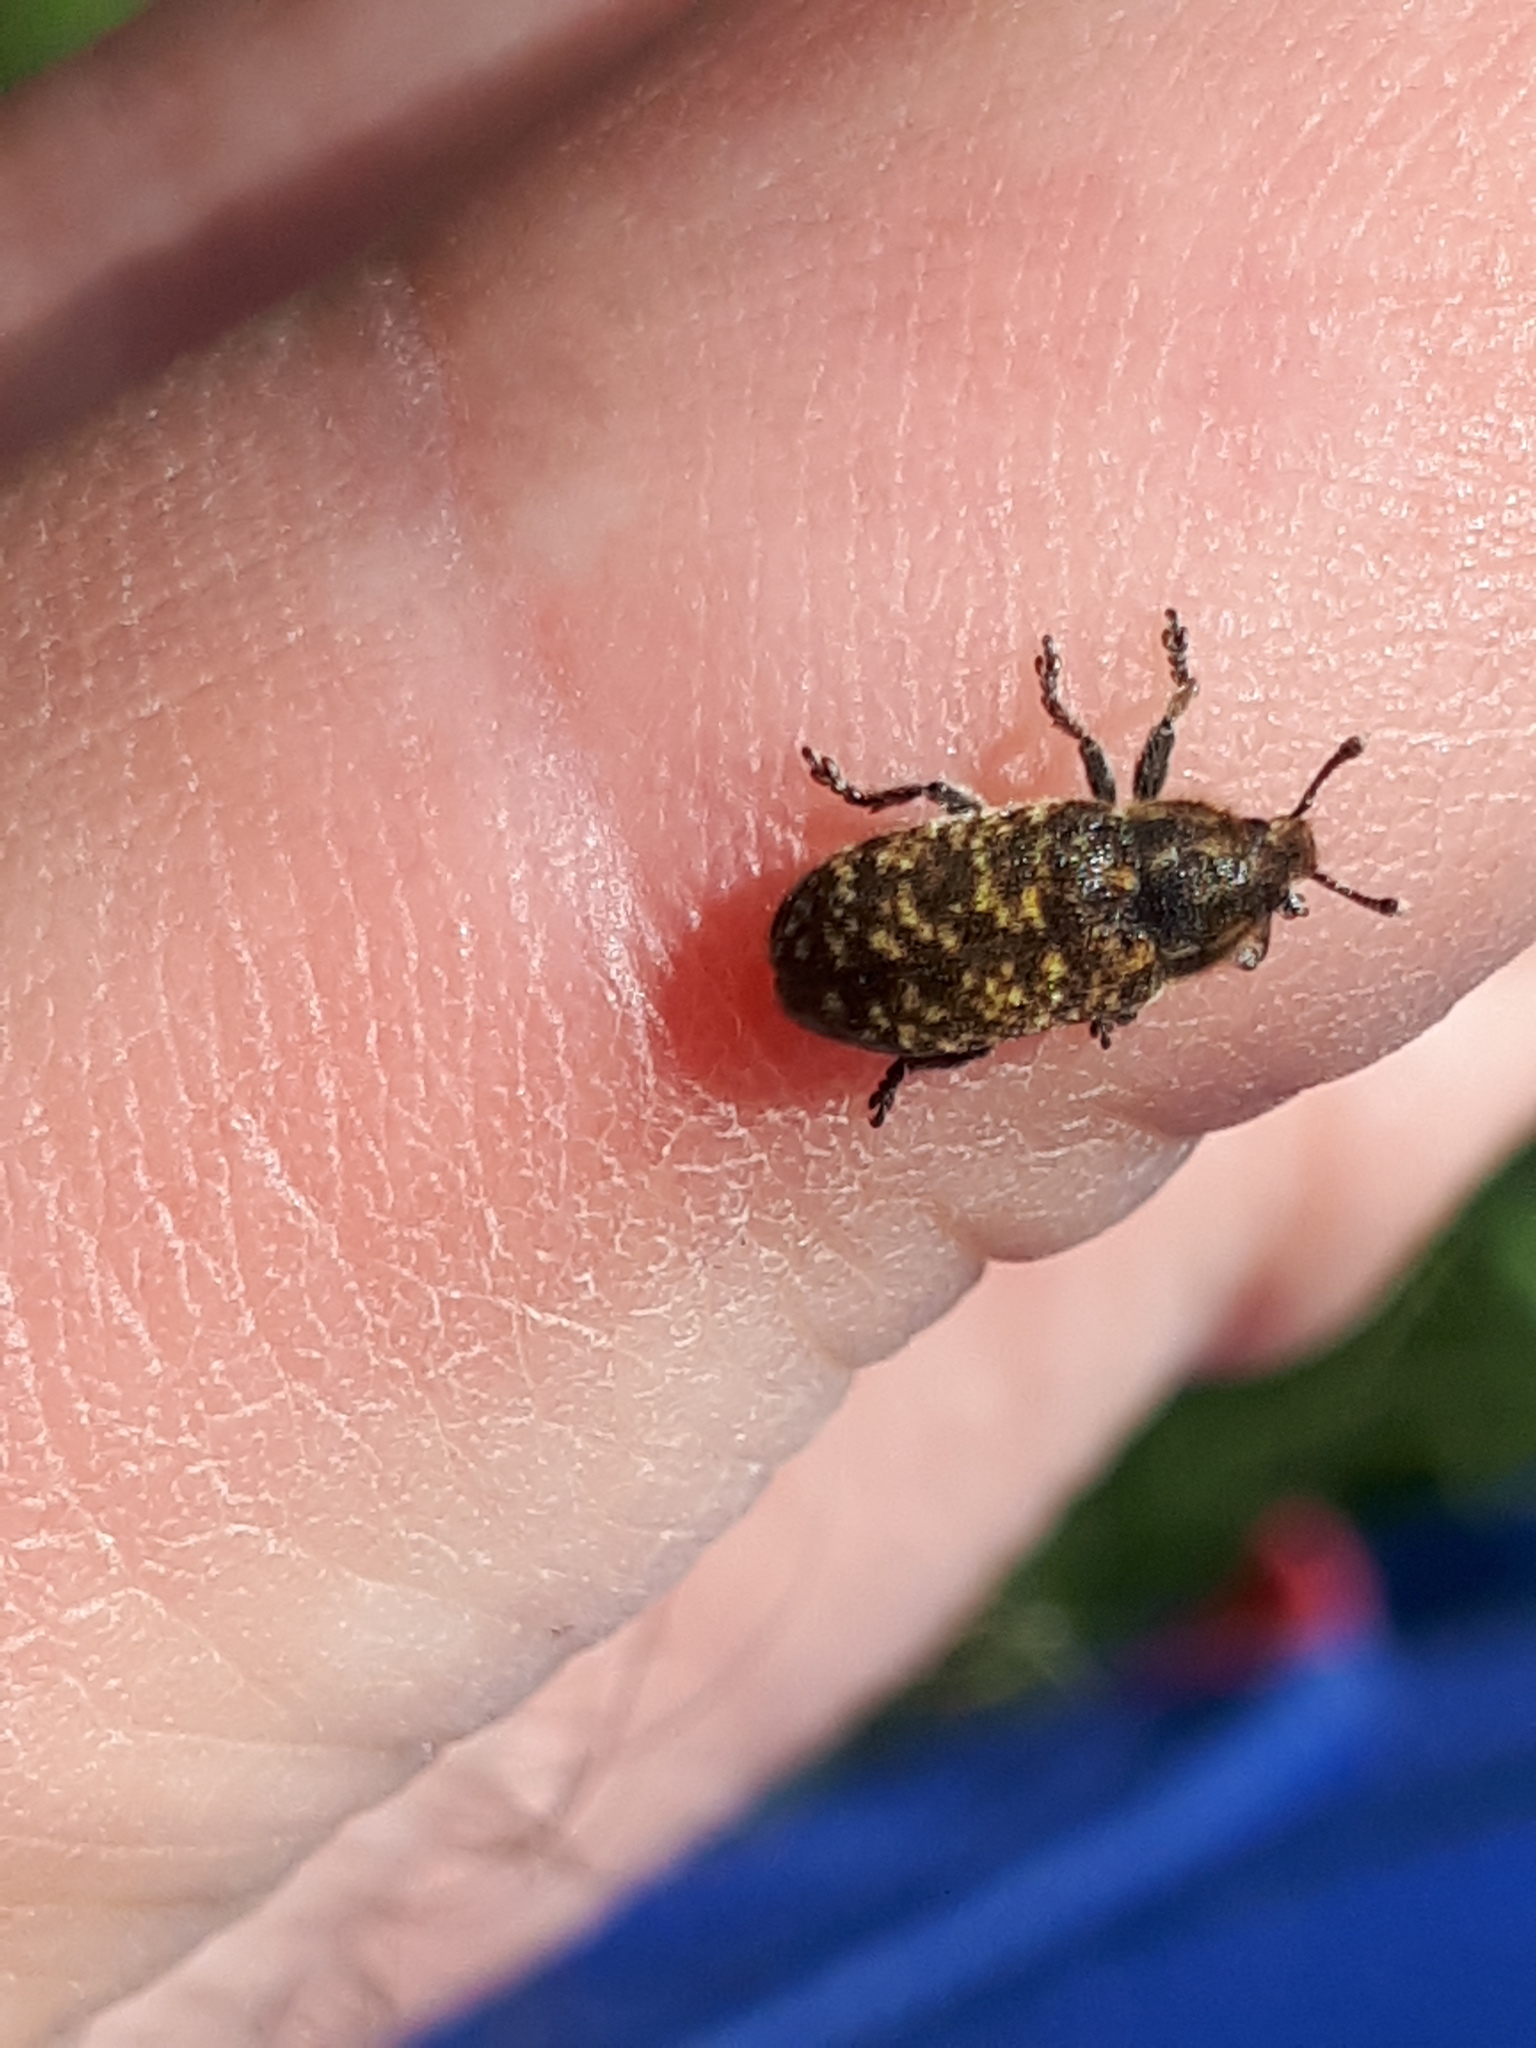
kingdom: Animalia
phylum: Arthropoda
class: Insecta
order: Coleoptera
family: Curculionidae
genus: Rhinocyllus
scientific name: Rhinocyllus conicus
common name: Weevil
